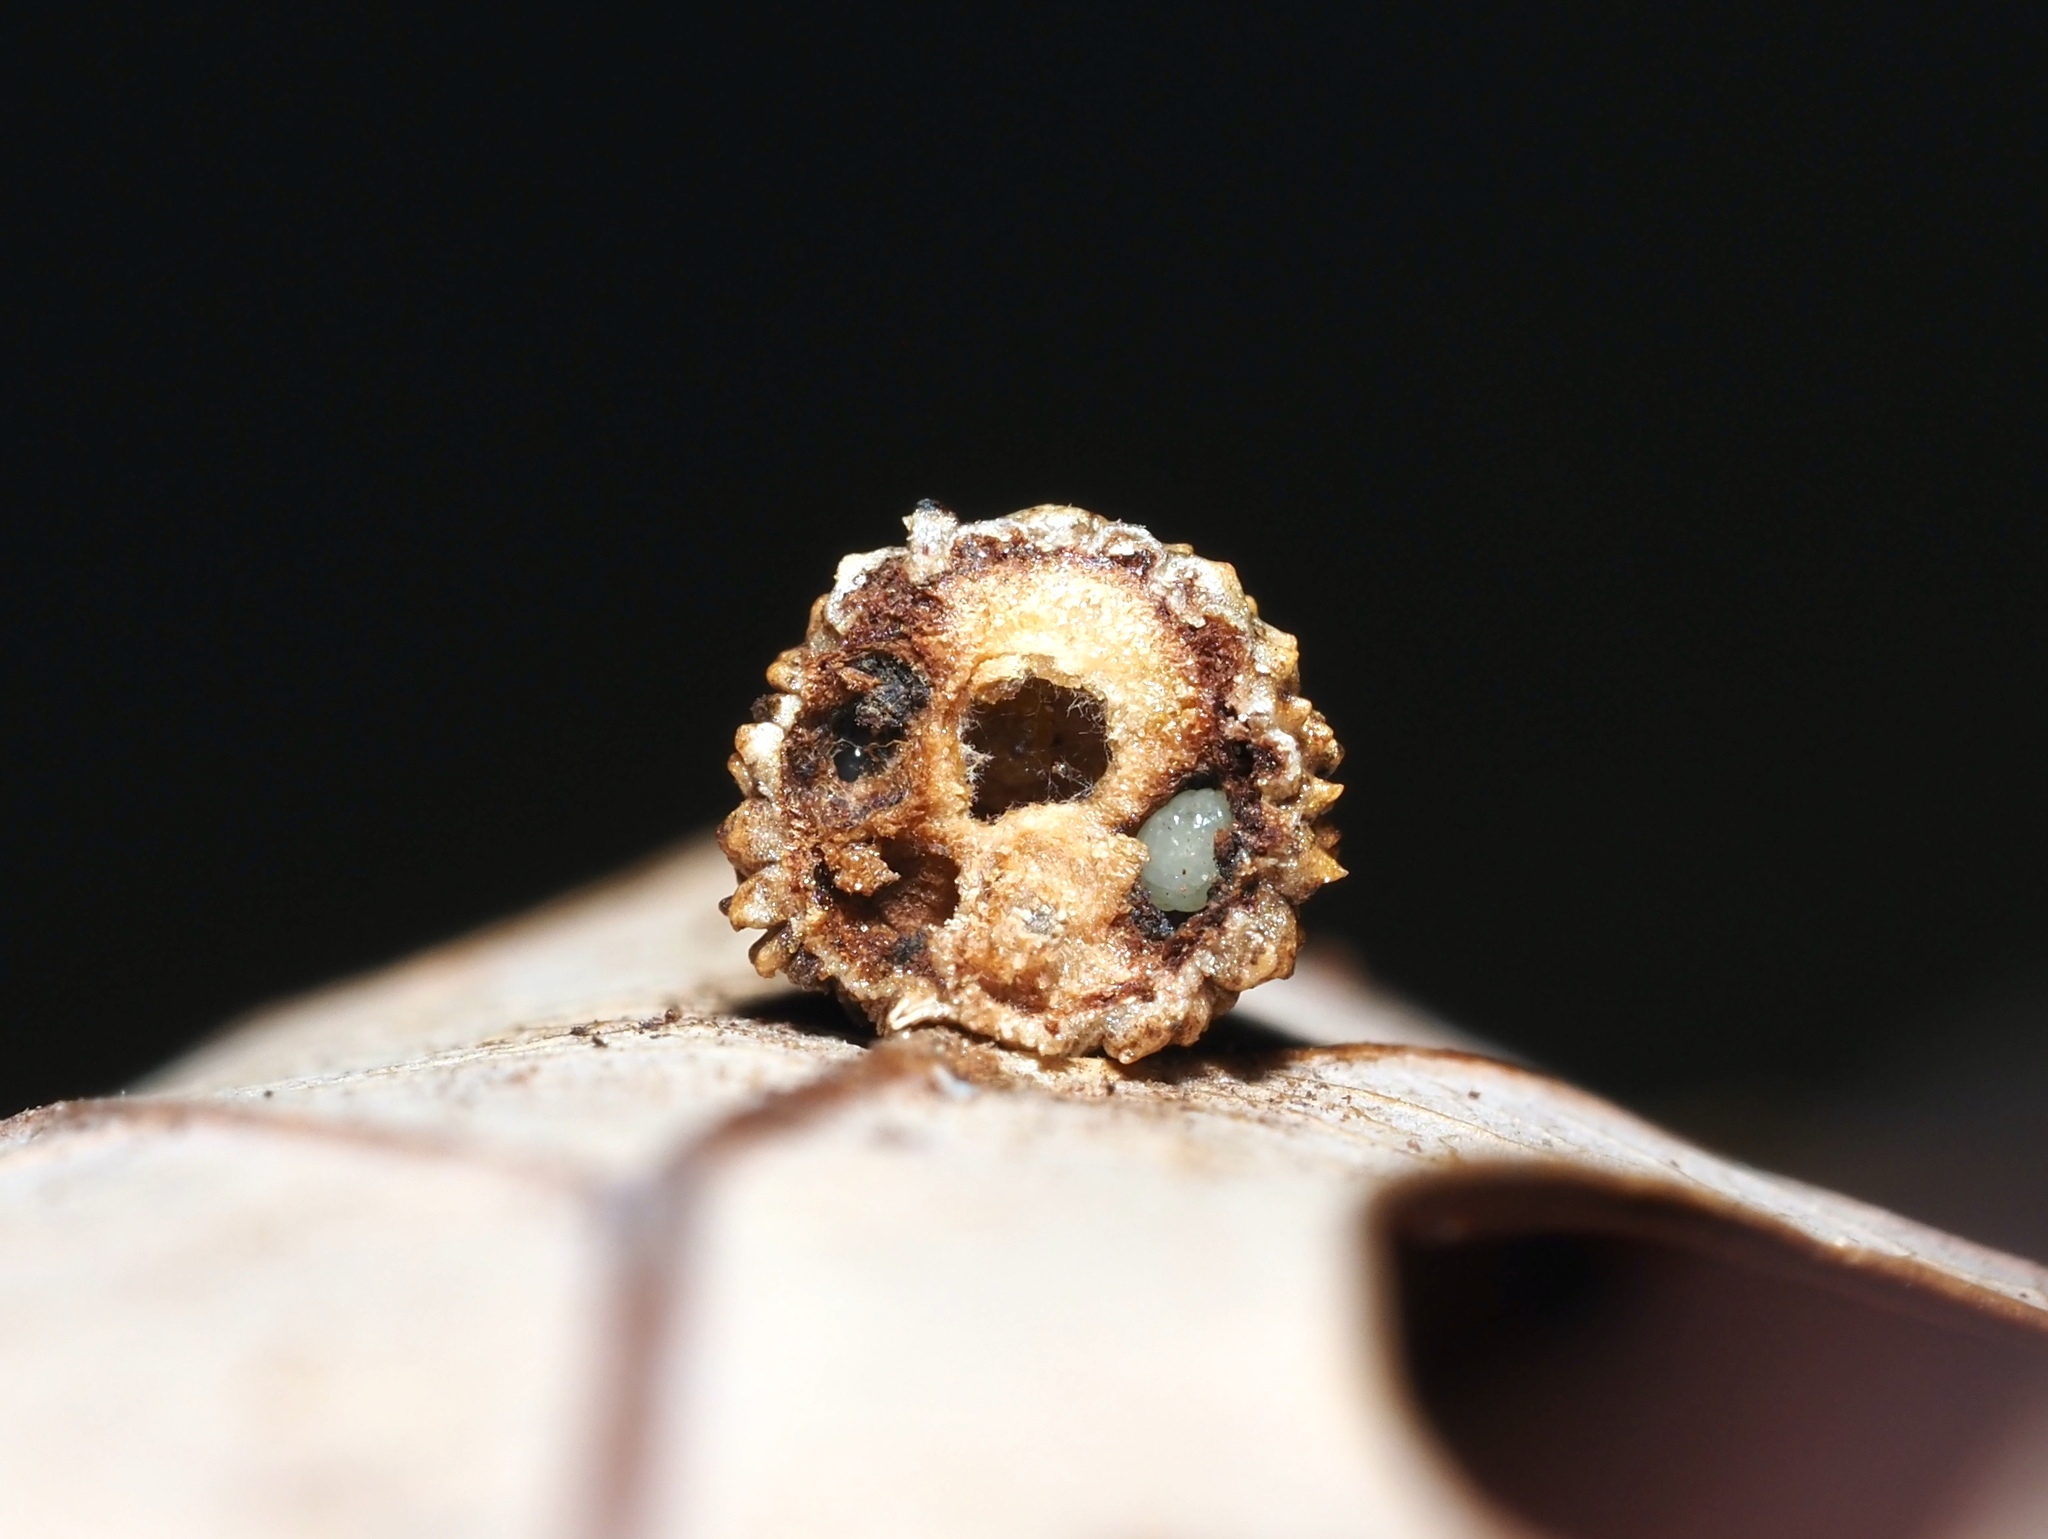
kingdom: Animalia
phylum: Arthropoda
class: Insecta
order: Hymenoptera
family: Cynipidae
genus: Acraspis
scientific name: Acraspis
